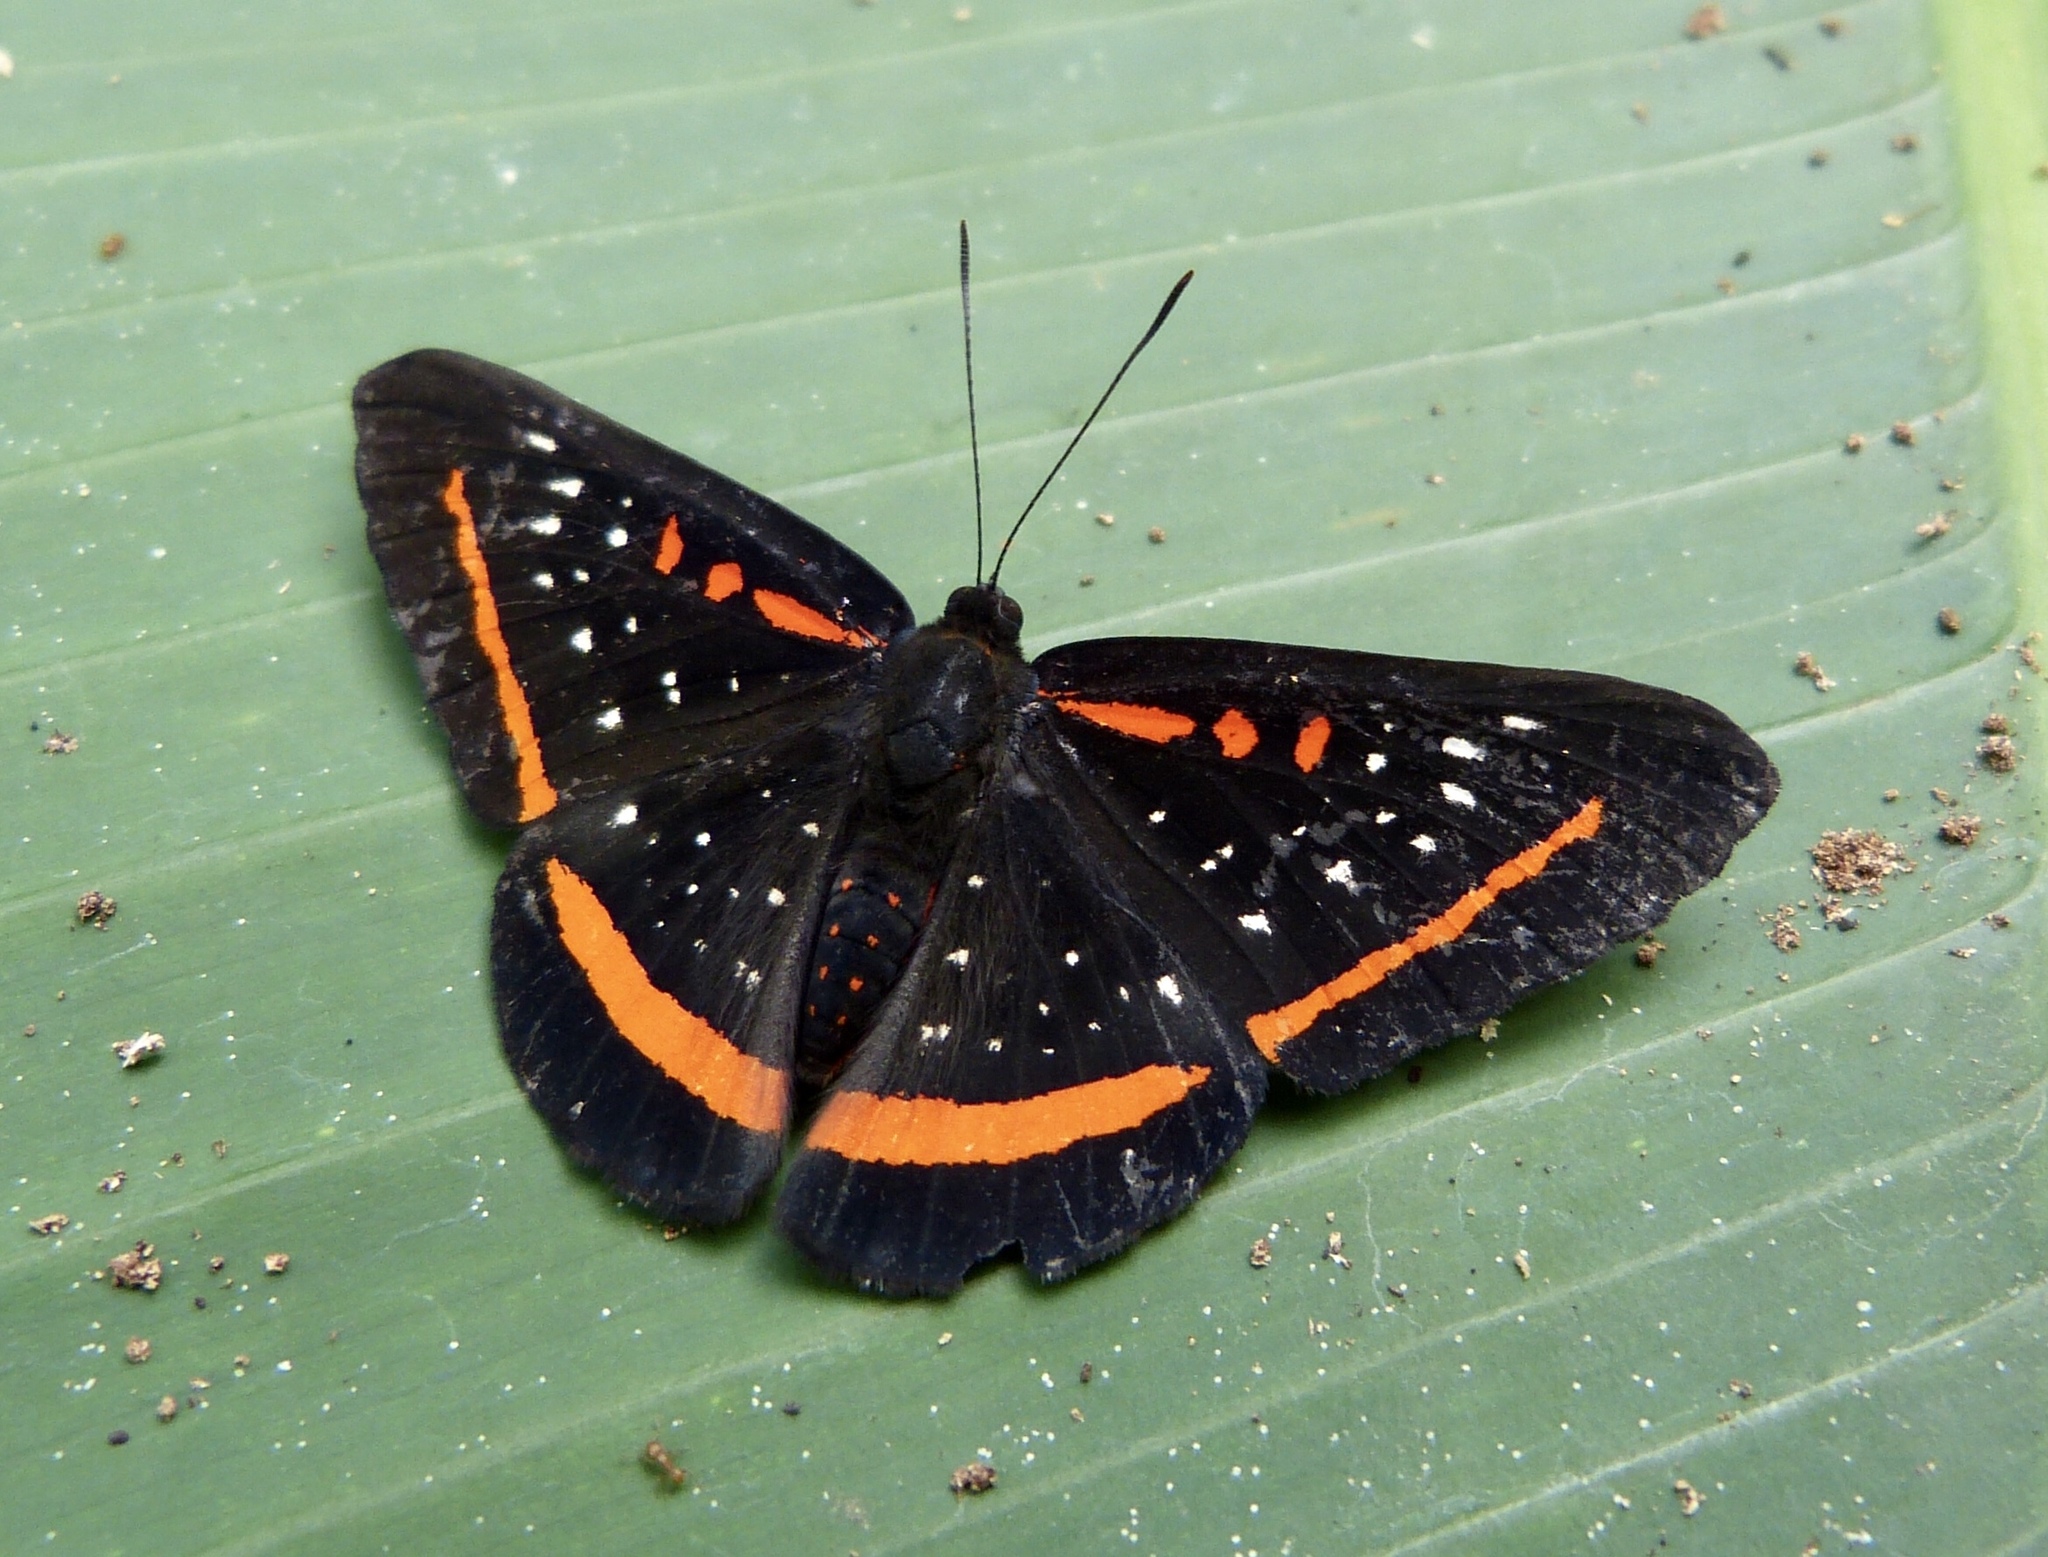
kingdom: Animalia
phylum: Arthropoda
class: Insecta
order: Lepidoptera
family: Riodinidae
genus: Amarynthis
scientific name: Amarynthis meneria
